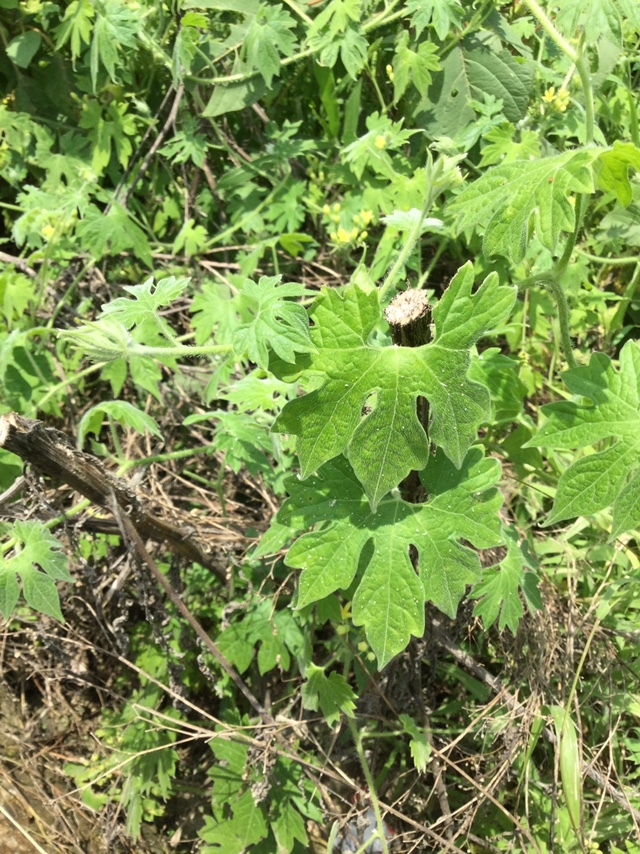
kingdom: Plantae
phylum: Tracheophyta
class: Magnoliopsida
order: Cornales
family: Loasaceae
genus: Gronovia
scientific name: Gronovia scandens
